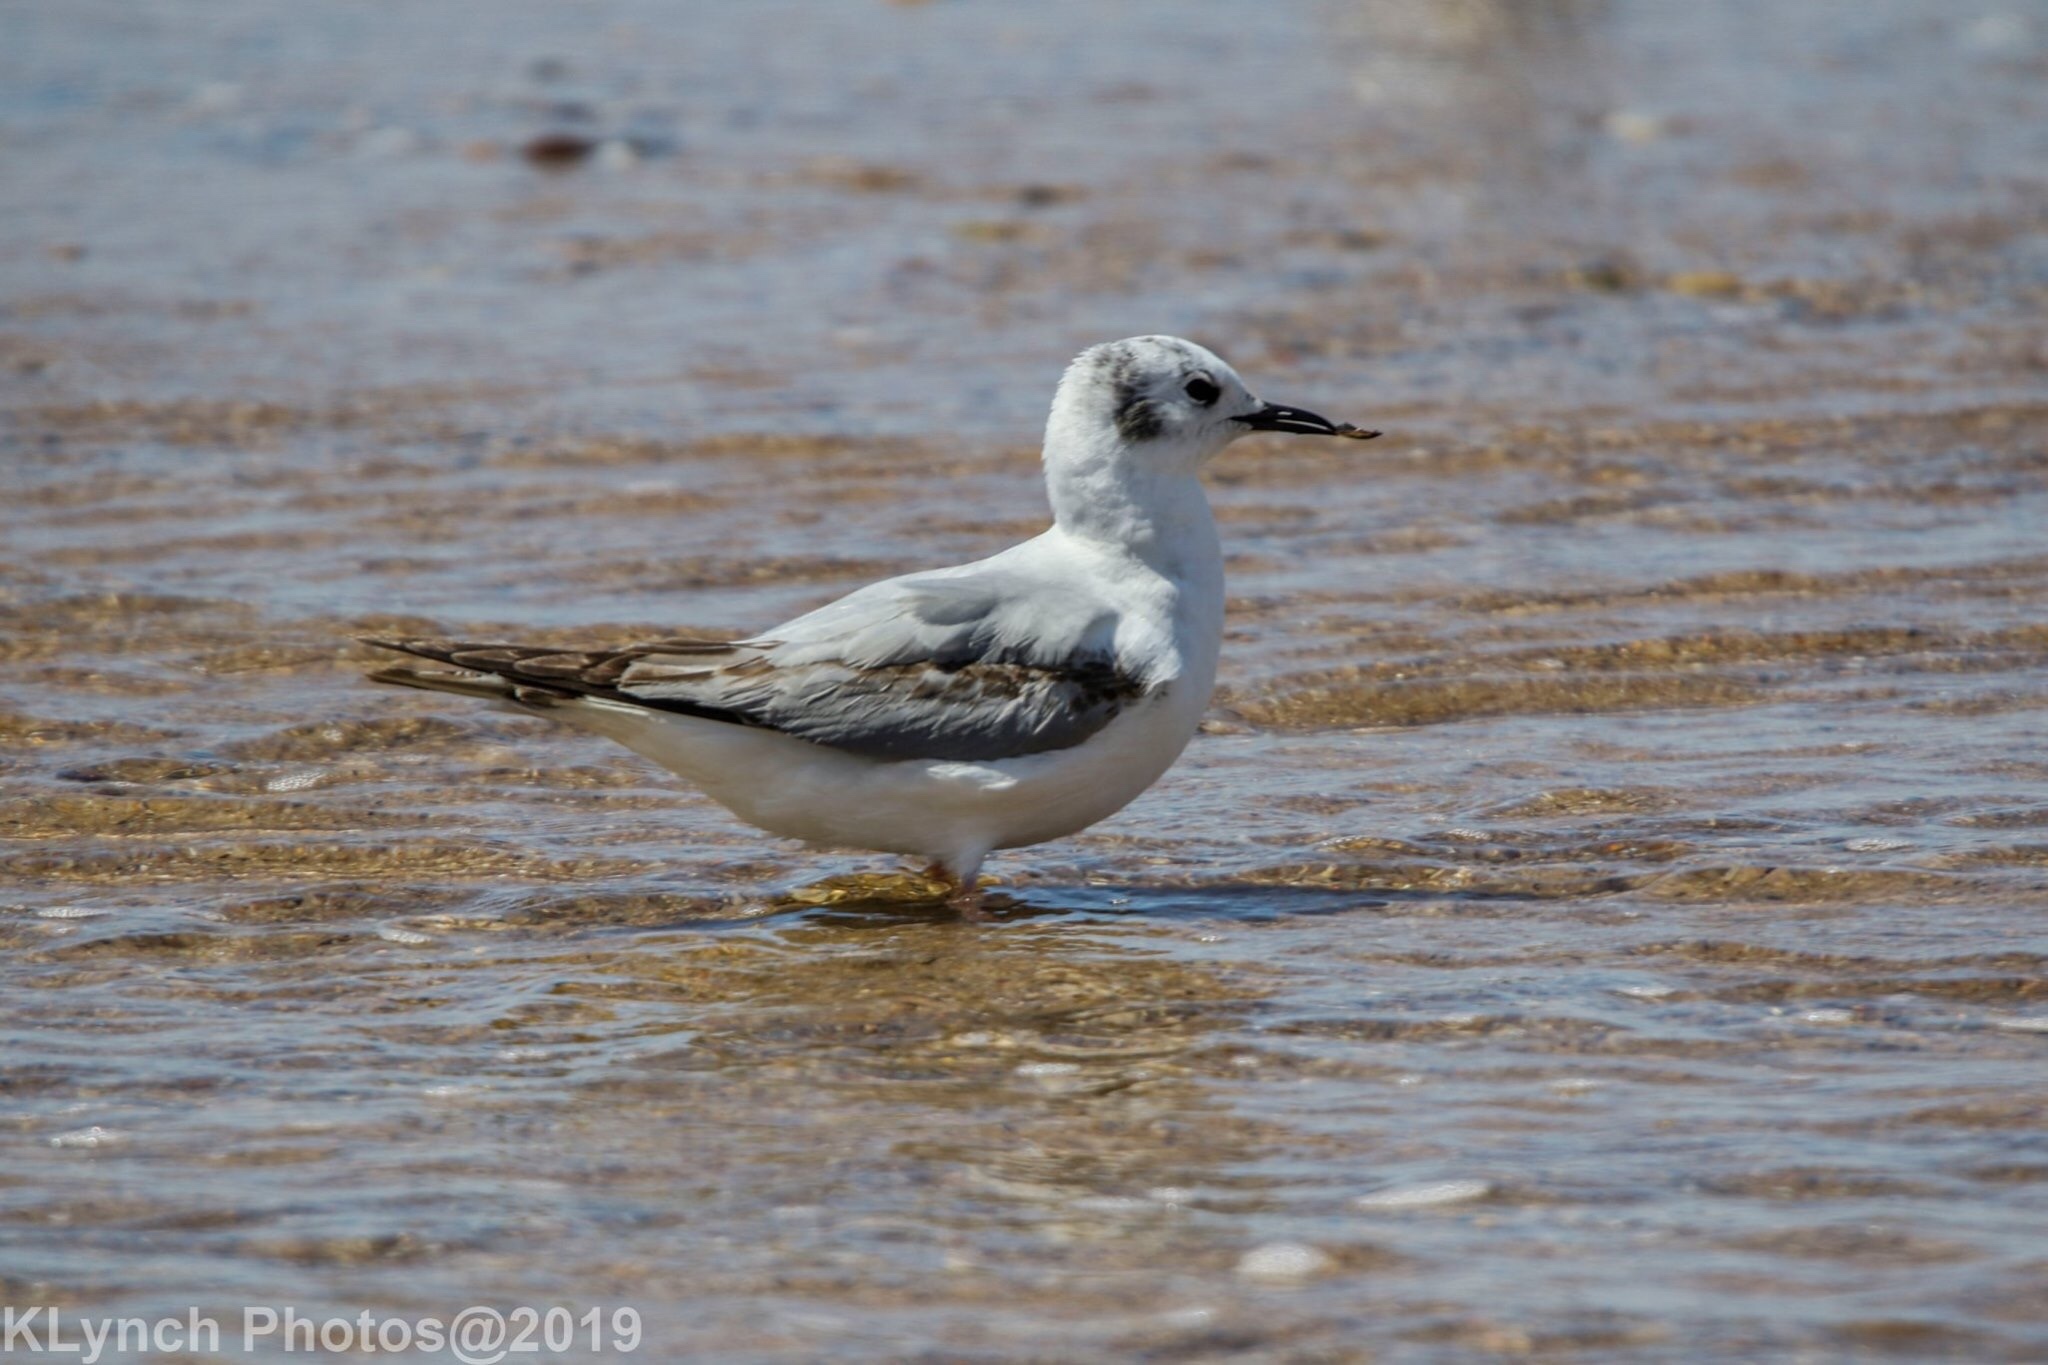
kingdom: Animalia
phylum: Chordata
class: Aves
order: Charadriiformes
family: Laridae
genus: Chroicocephalus
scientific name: Chroicocephalus philadelphia
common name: Bonaparte's gull
